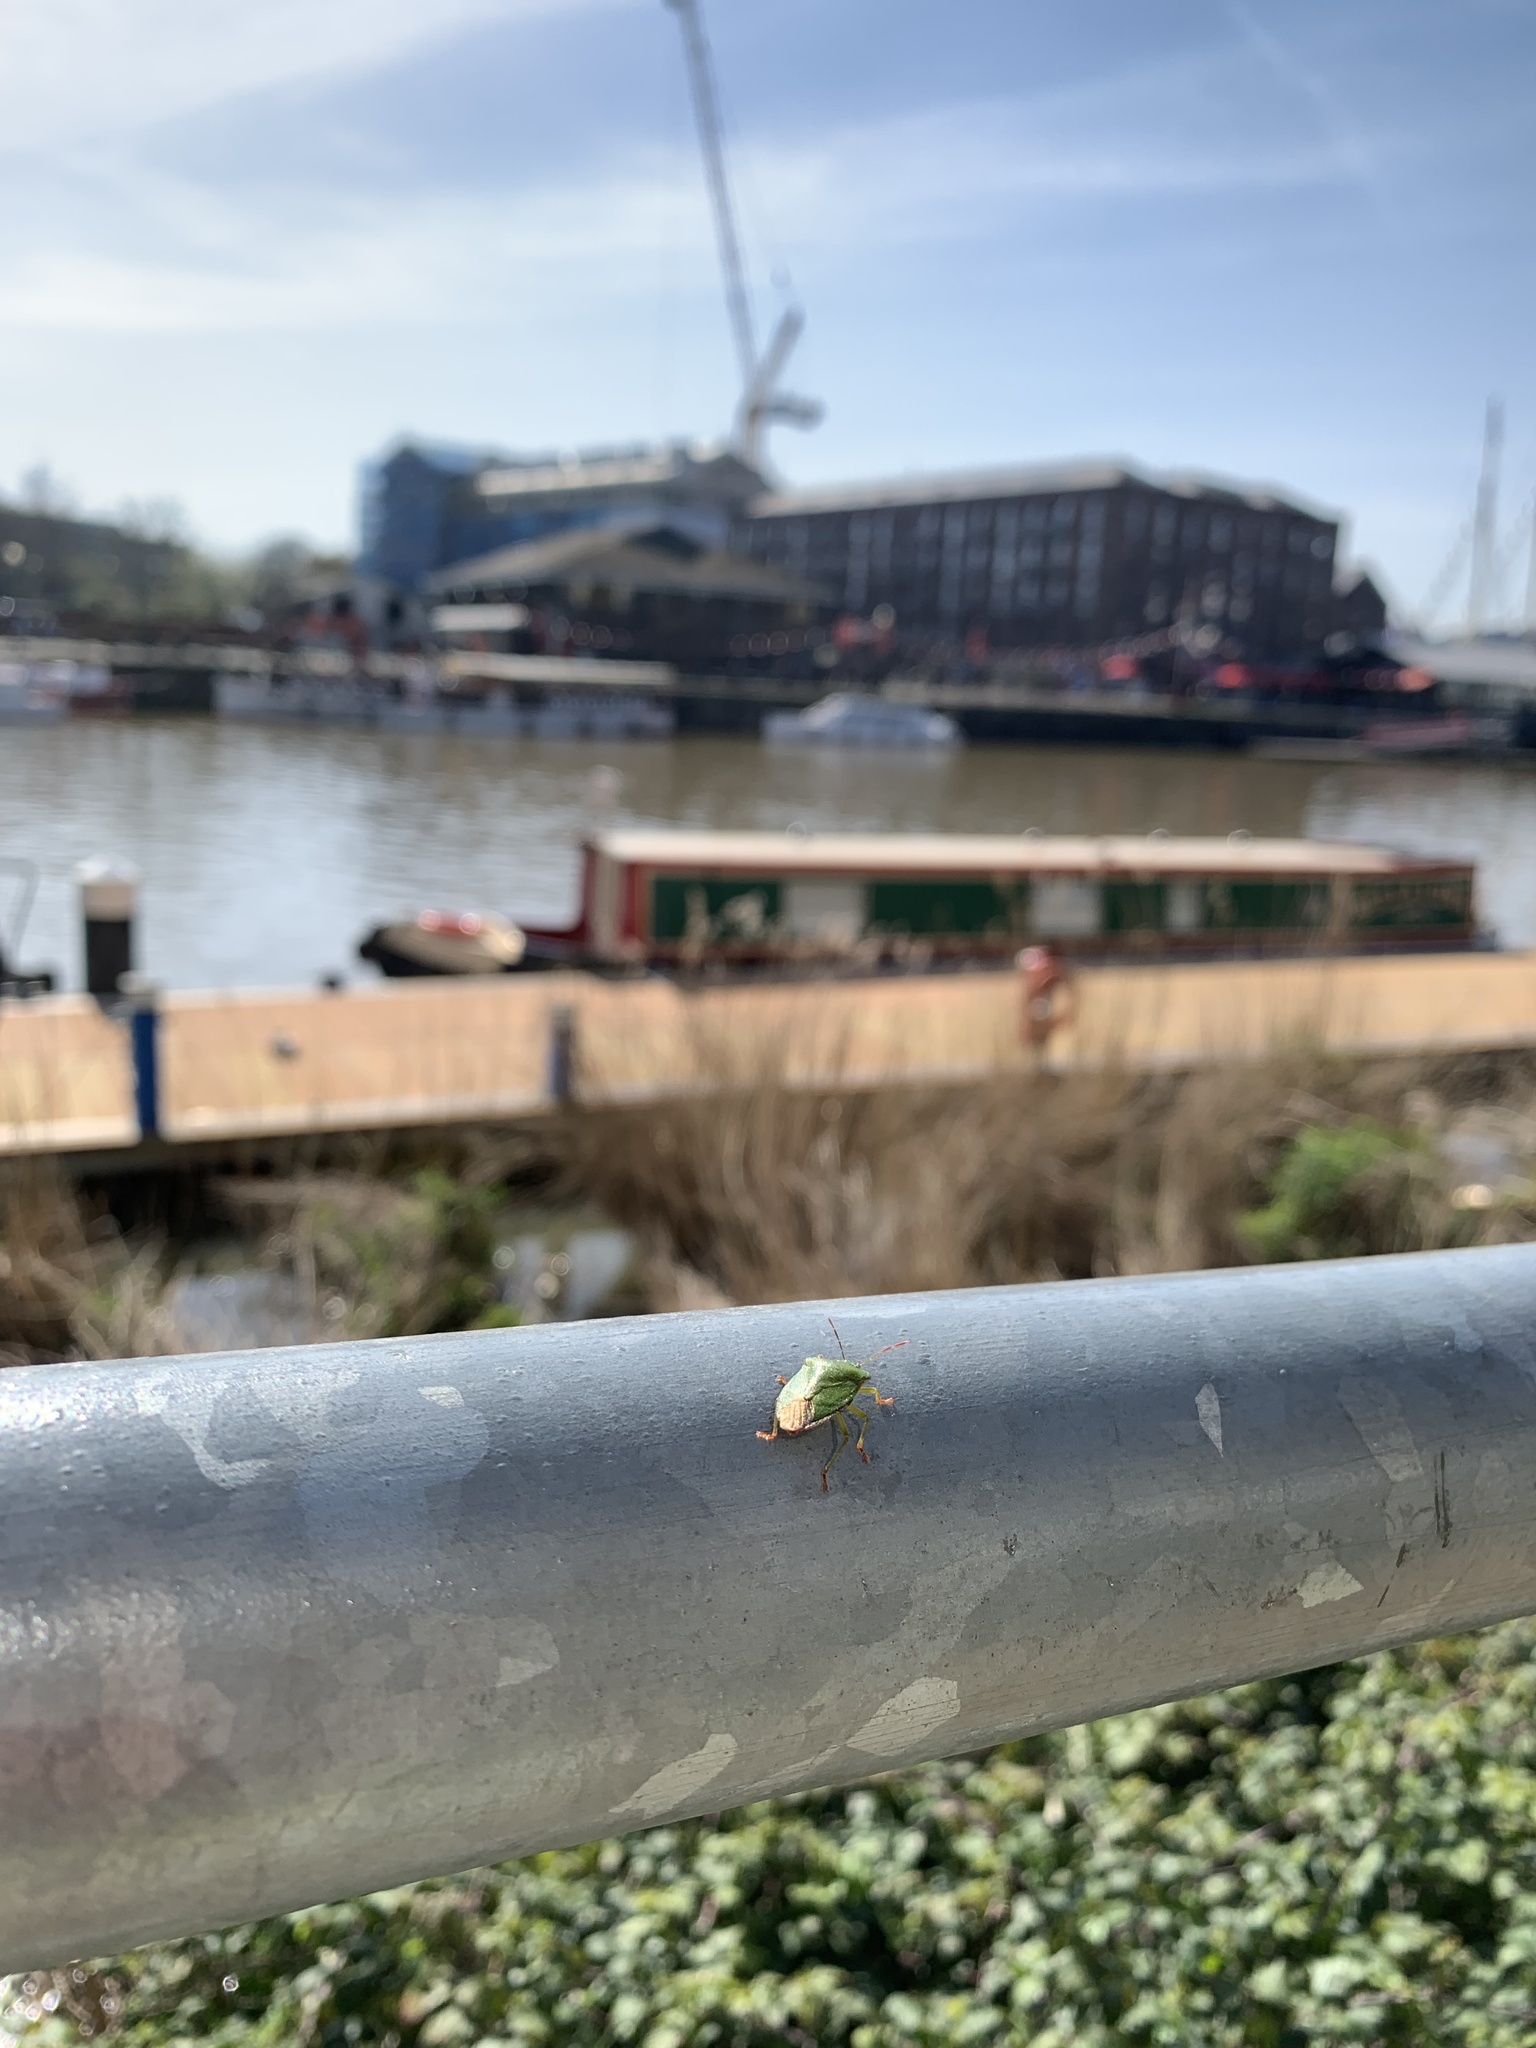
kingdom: Animalia
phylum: Arthropoda
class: Insecta
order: Hemiptera
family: Pentatomidae
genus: Palomena
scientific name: Palomena prasina
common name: Green shieldbug
